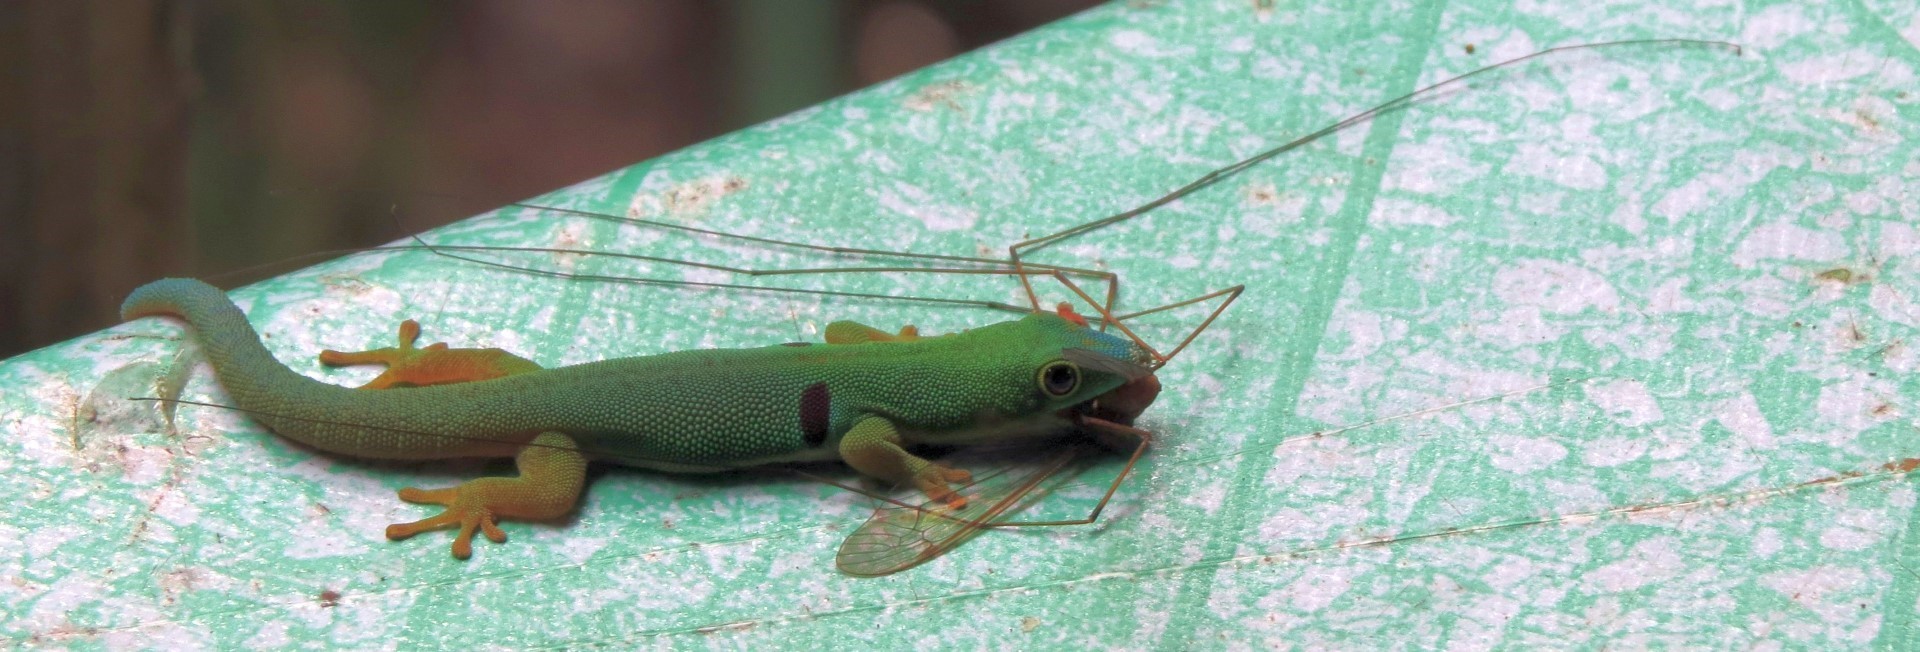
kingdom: Animalia
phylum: Chordata
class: Squamata
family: Gekkonidae
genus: Phelsuma
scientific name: Phelsuma quadriocellata
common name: Peacock day gecko
